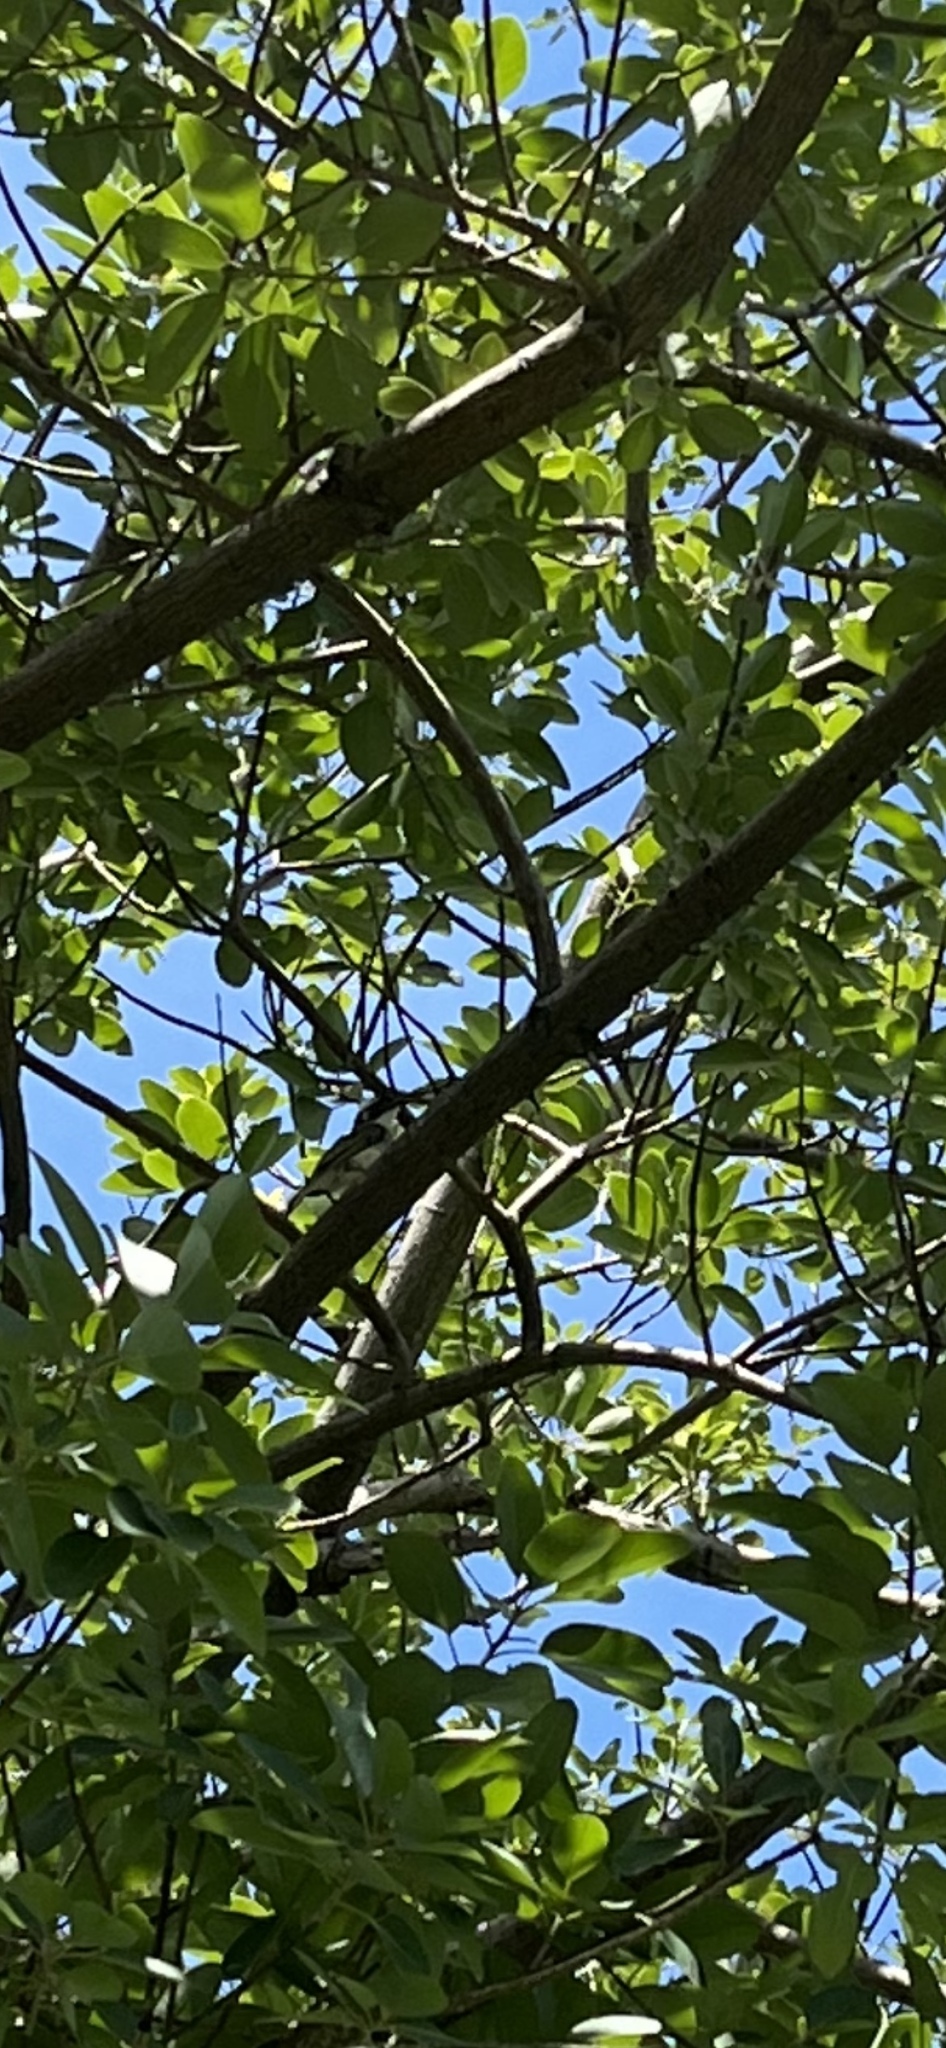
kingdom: Animalia
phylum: Chordata
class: Aves
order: Passeriformes
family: Pycnonotidae
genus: Pycnonotus
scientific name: Pycnonotus sinensis
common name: Light-vented bulbul
